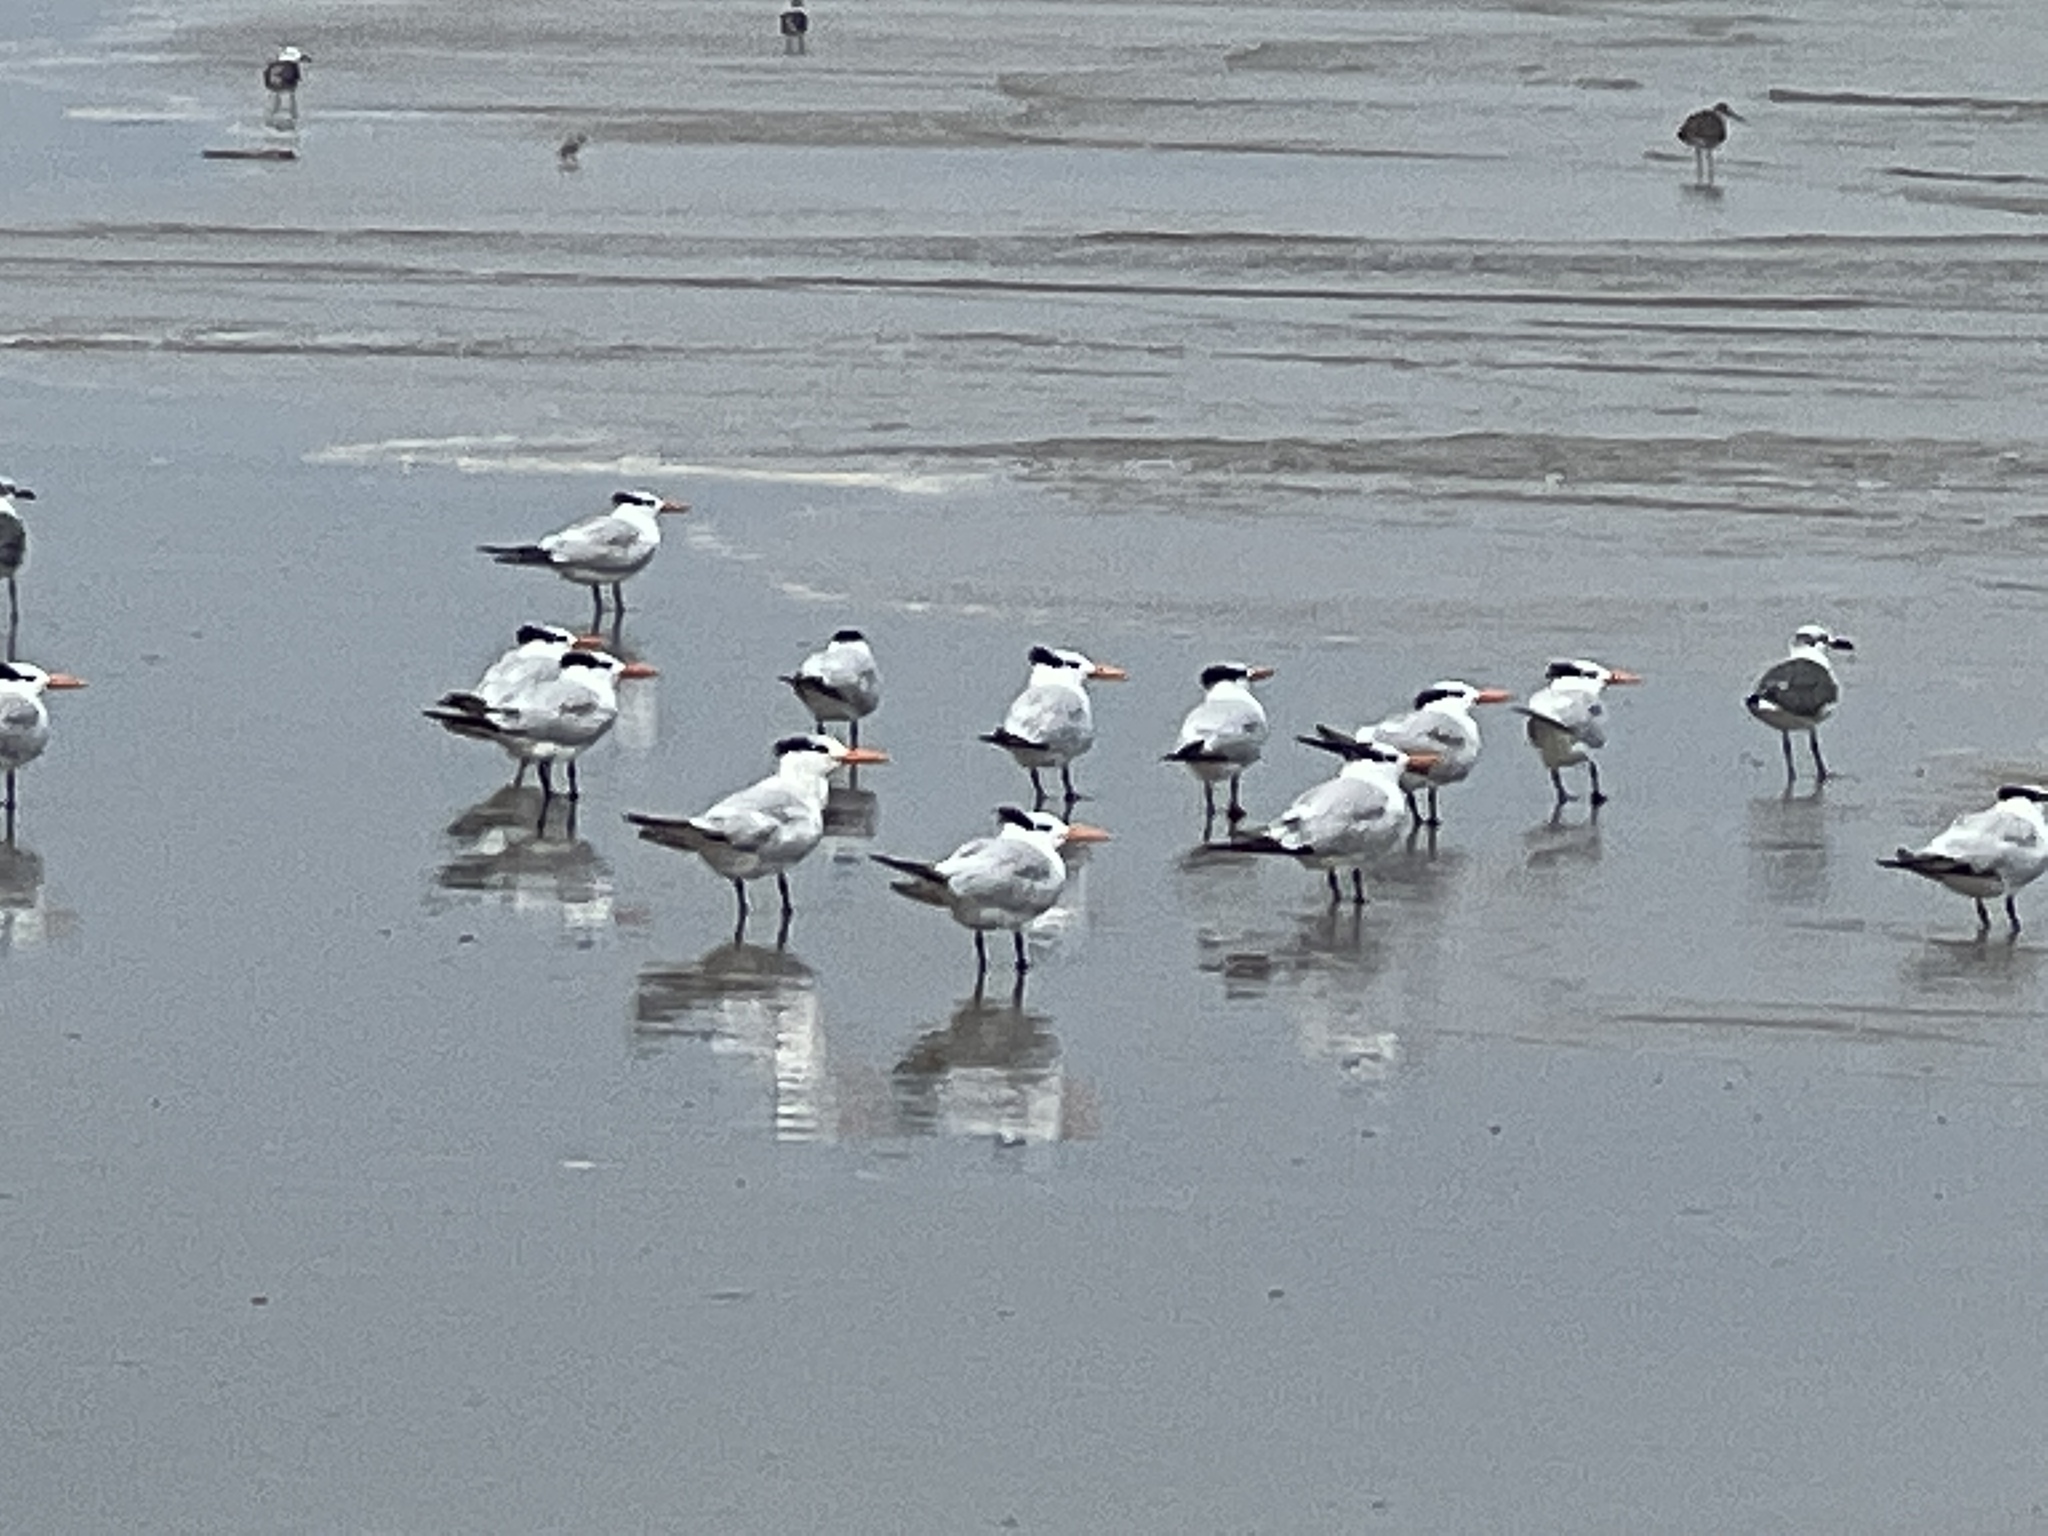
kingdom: Animalia
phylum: Chordata
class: Aves
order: Charadriiformes
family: Laridae
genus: Thalasseus
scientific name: Thalasseus maximus
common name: Royal tern
